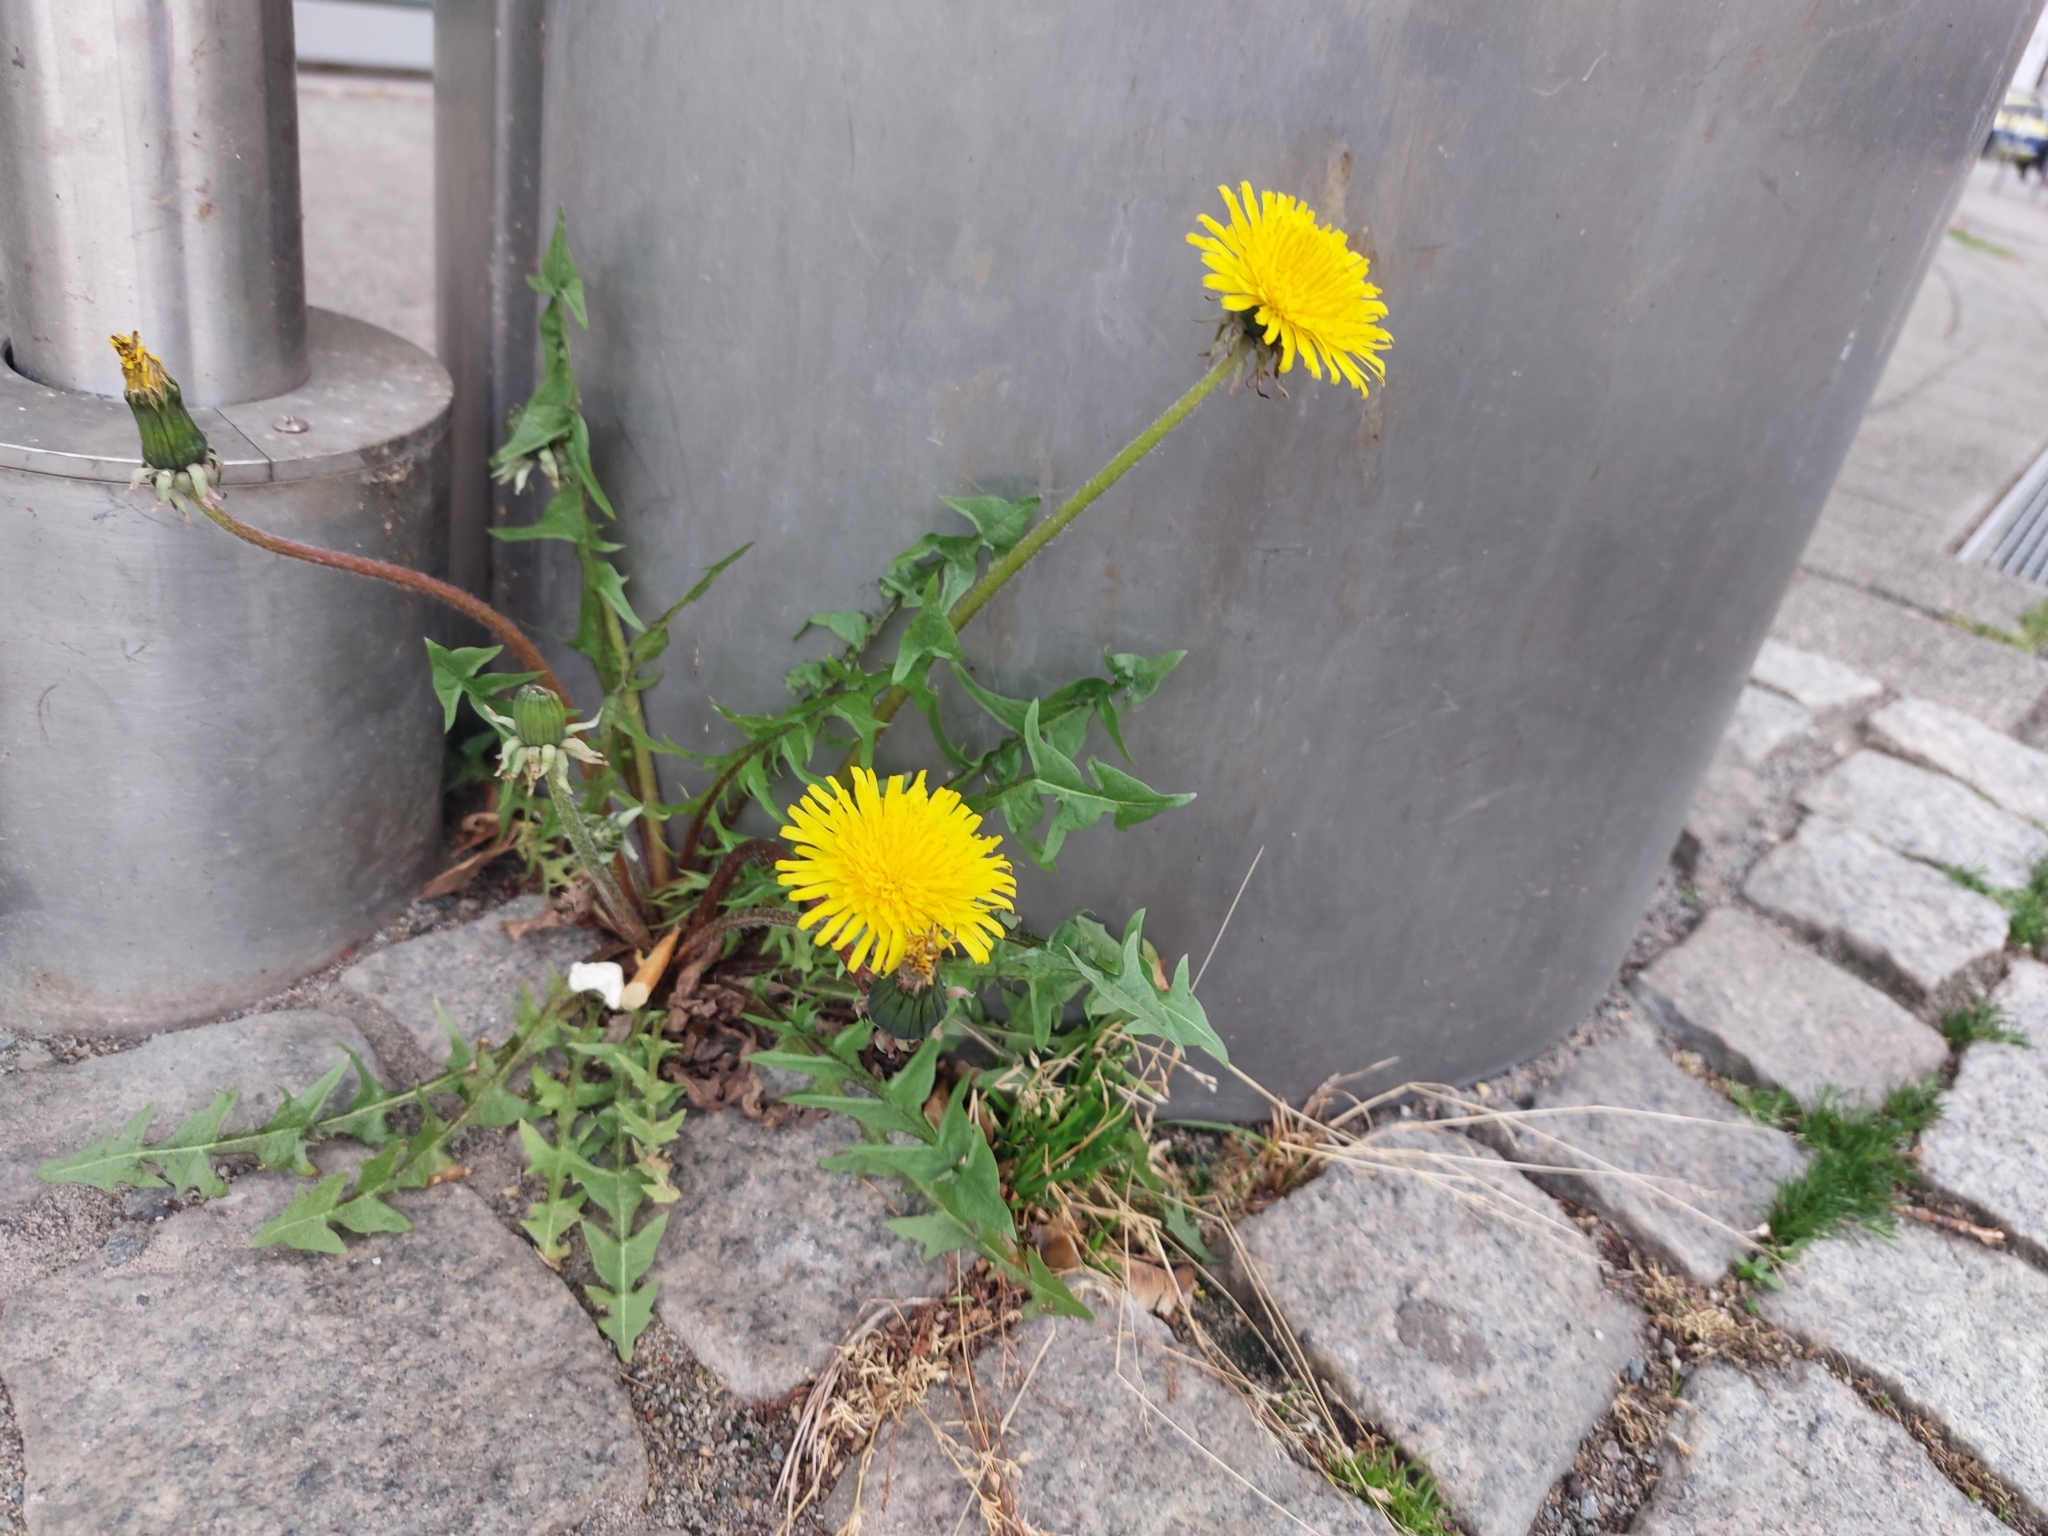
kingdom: Plantae
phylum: Tracheophyta
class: Magnoliopsida
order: Asterales
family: Asteraceae
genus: Taraxacum
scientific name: Taraxacum officinale
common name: Common dandelion
